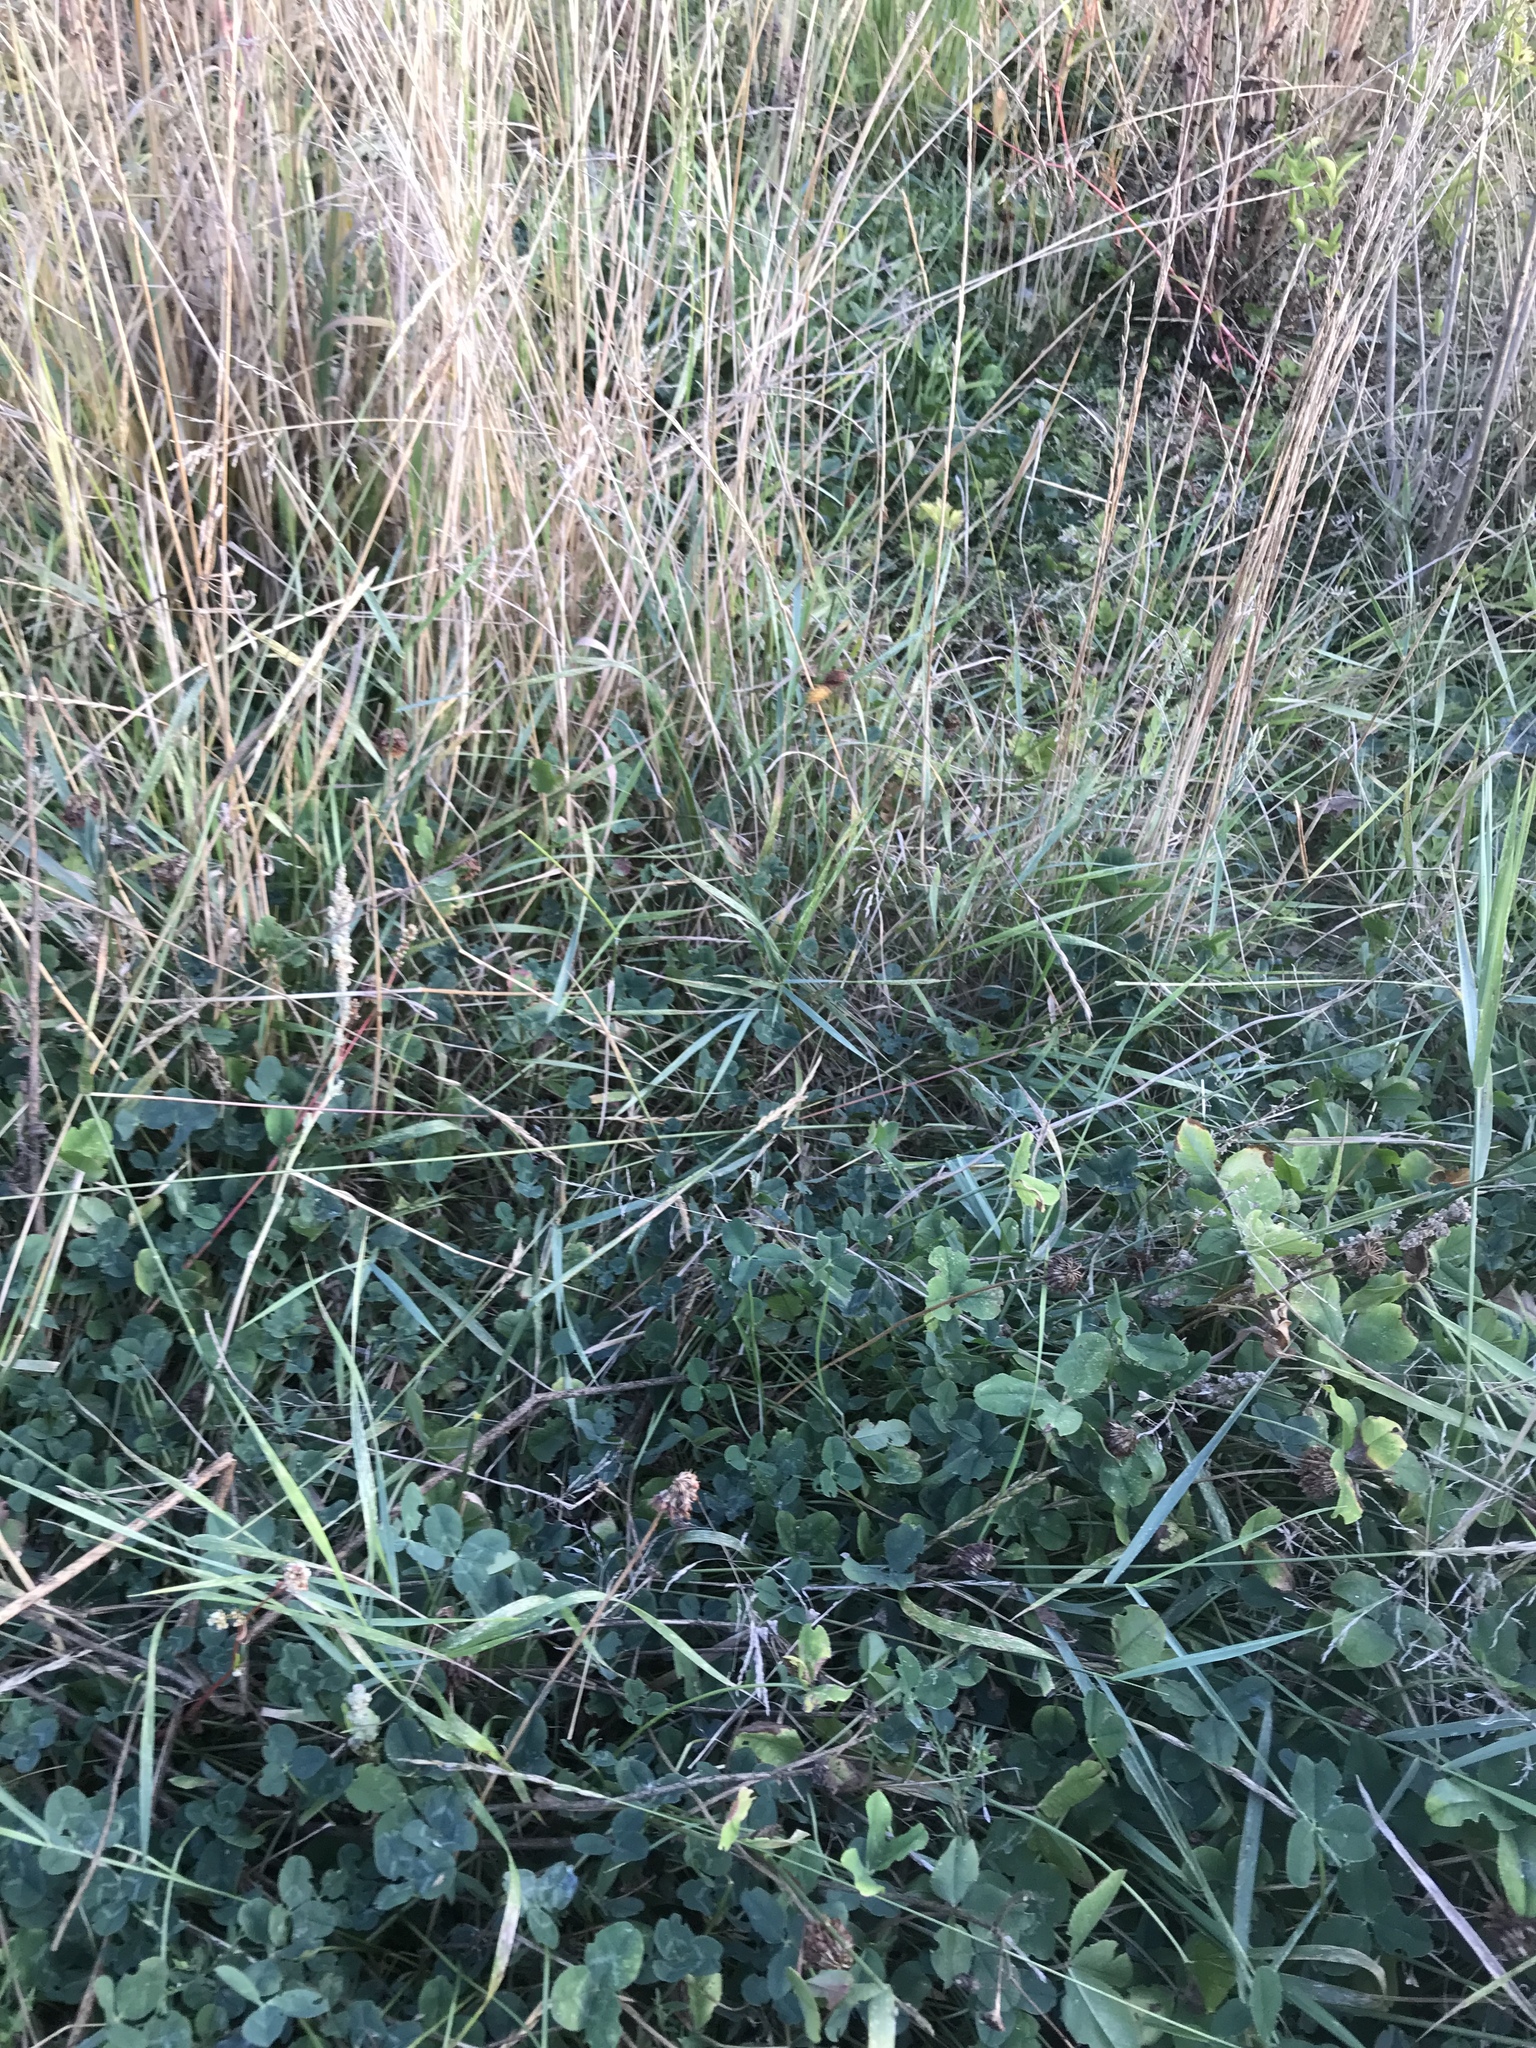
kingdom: Animalia
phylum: Arthropoda
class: Insecta
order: Hymenoptera
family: Vespidae
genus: Vespa
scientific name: Vespa crabro
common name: Hornet
